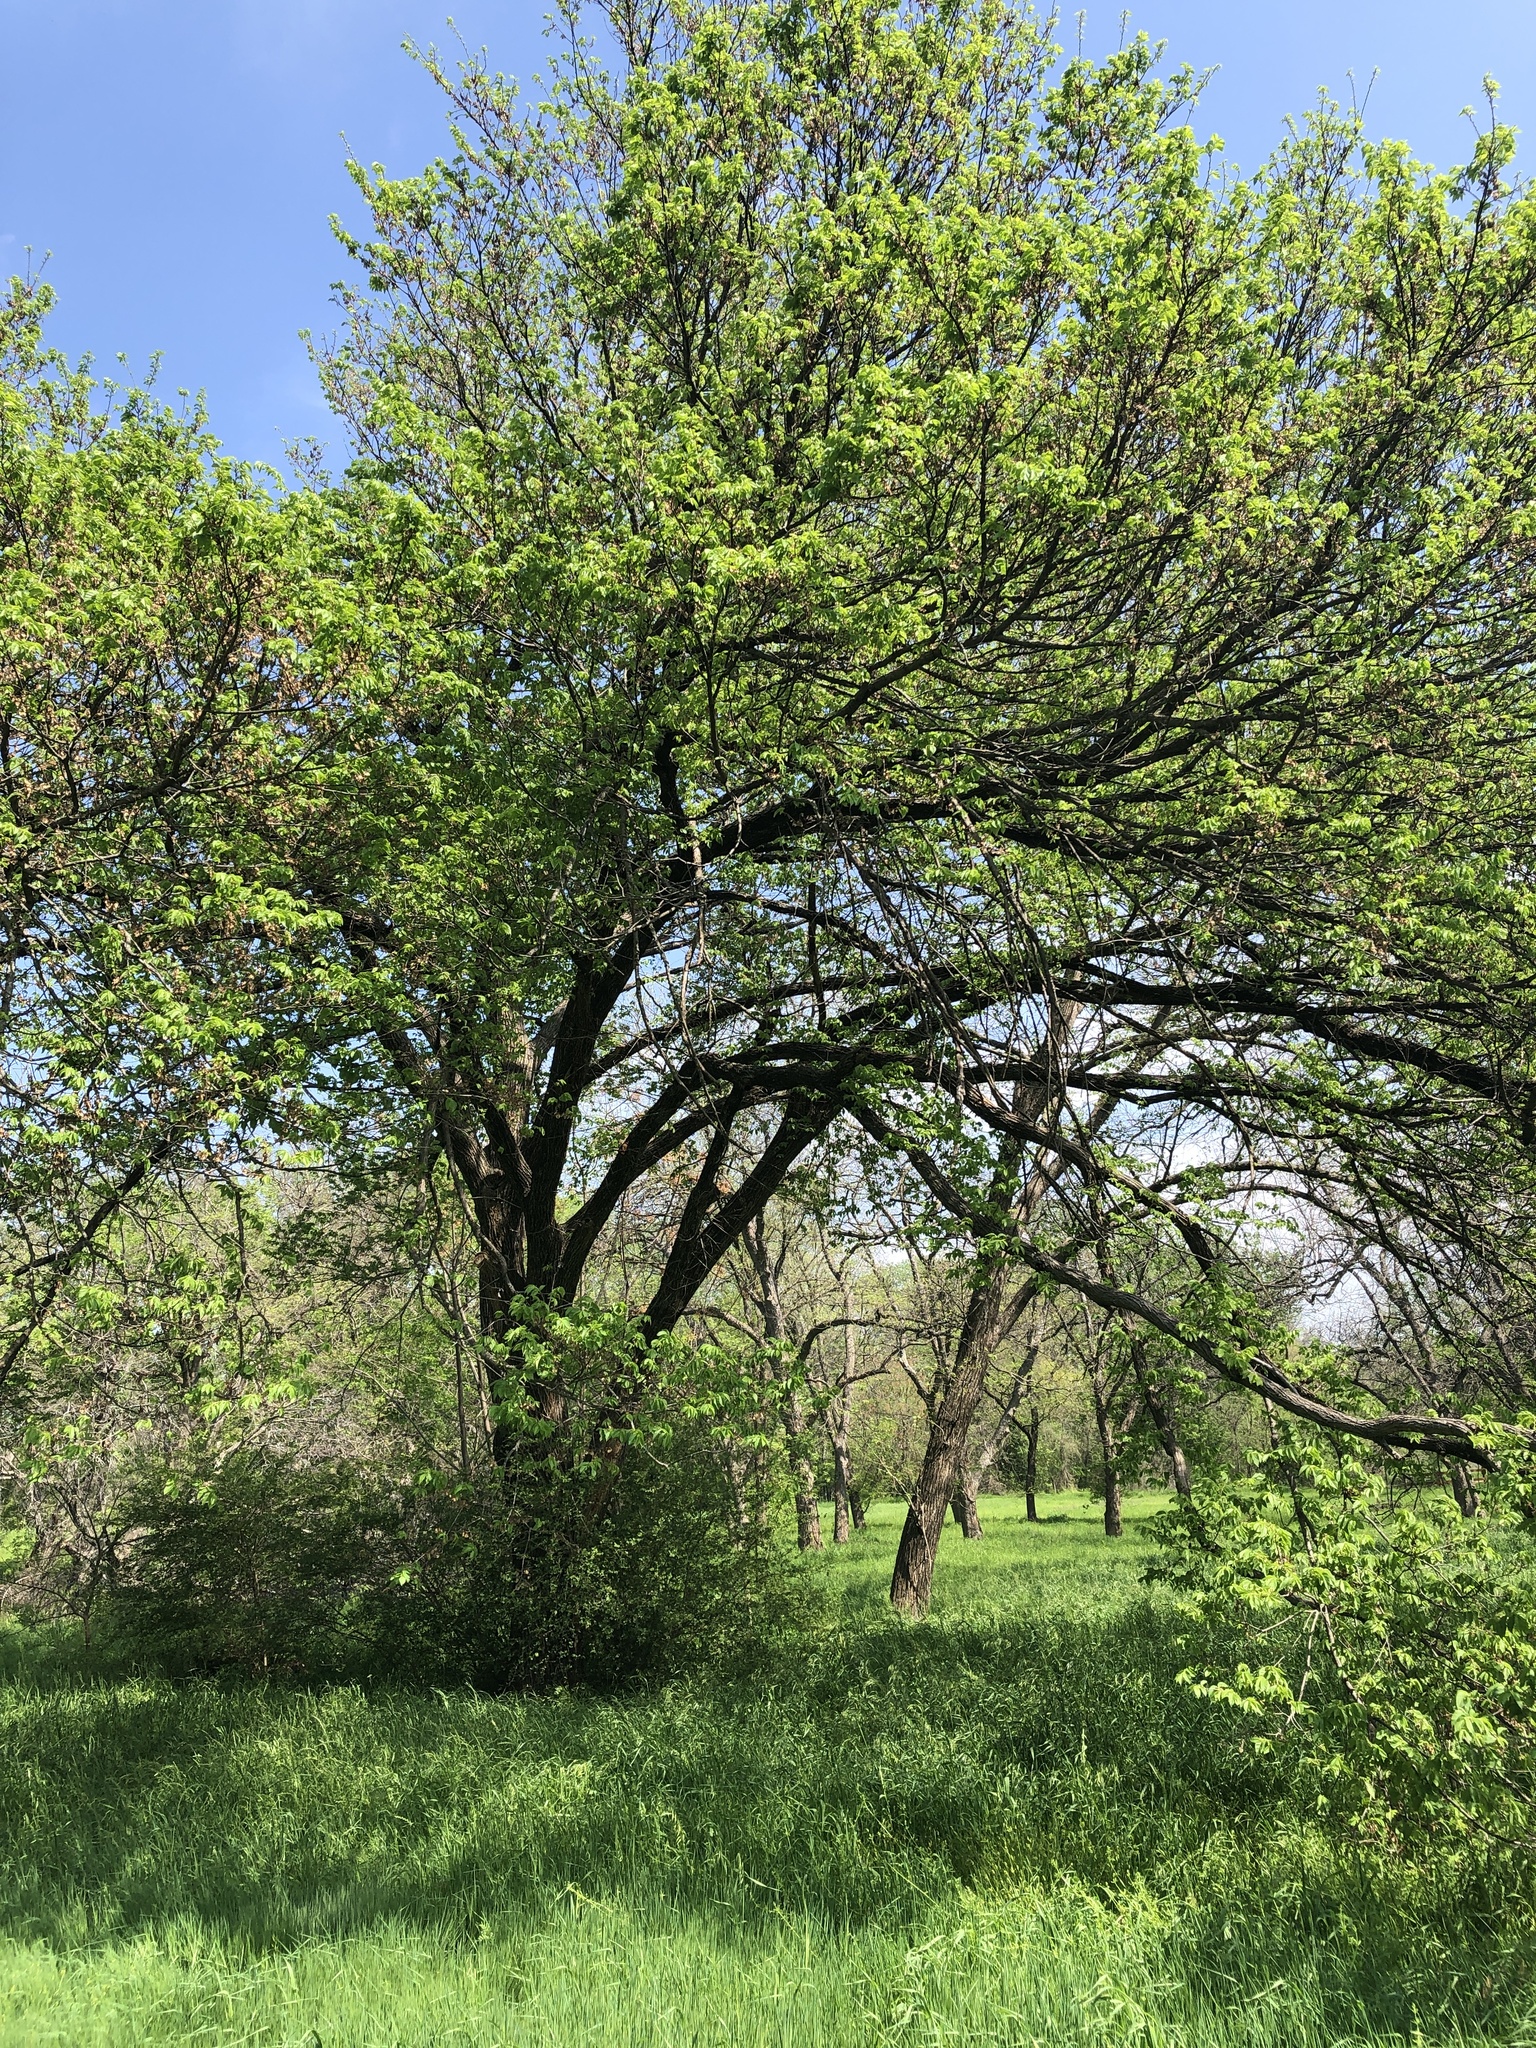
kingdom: Plantae
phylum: Tracheophyta
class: Magnoliopsida
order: Rosales
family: Ulmaceae
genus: Ulmus
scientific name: Ulmus americana
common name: American elm
